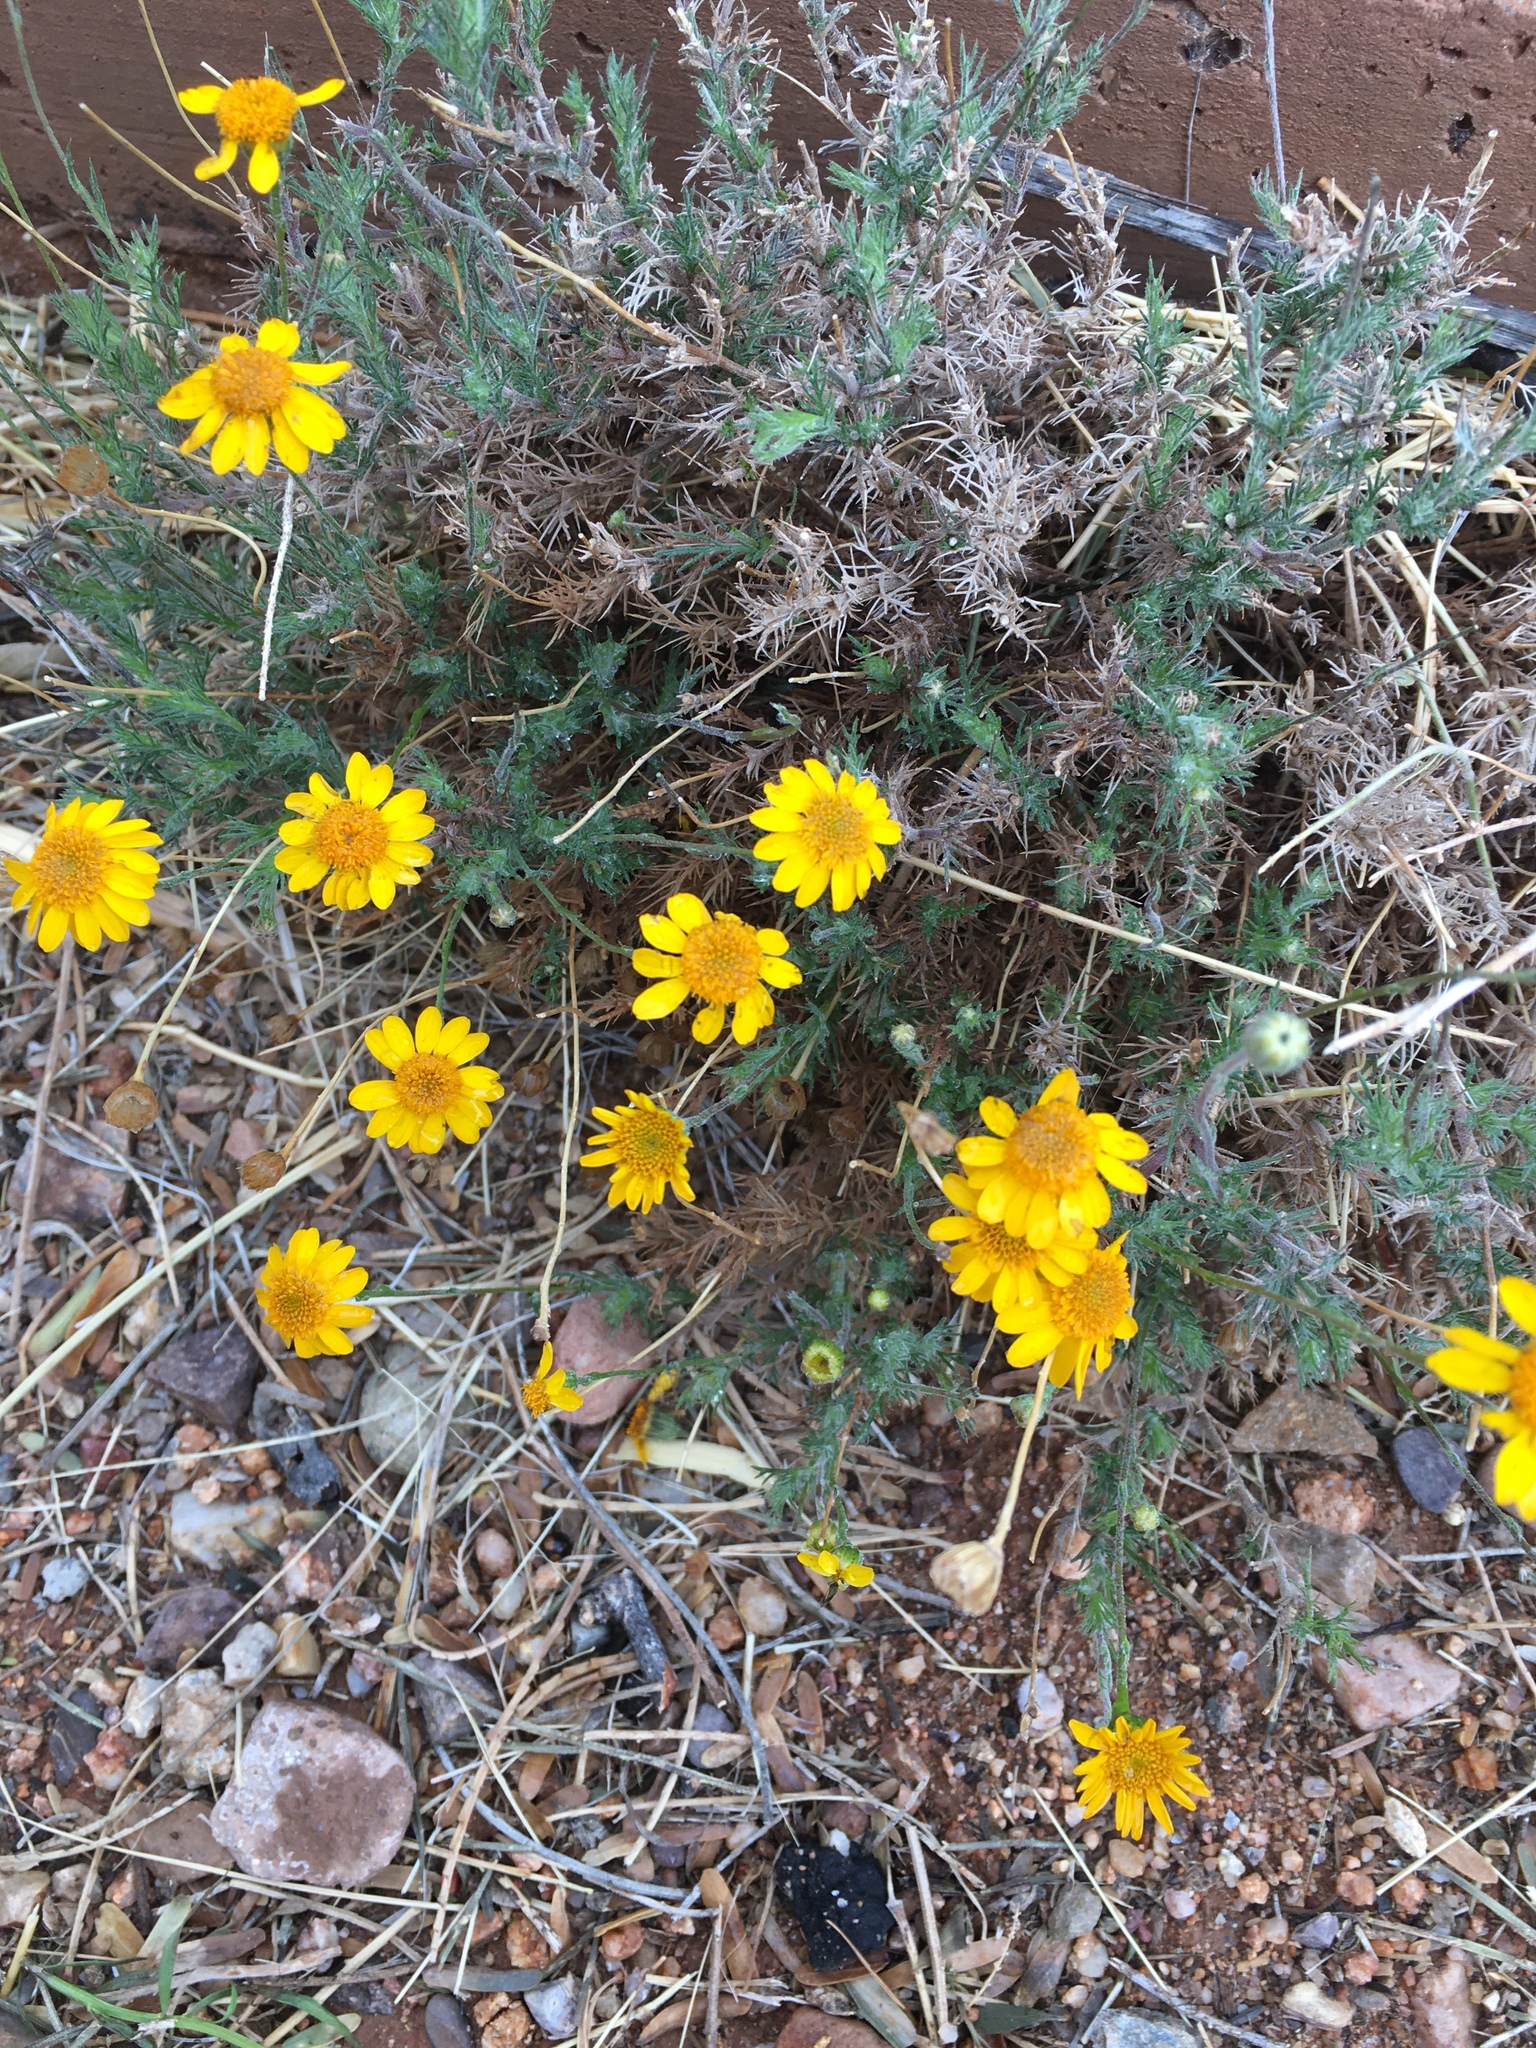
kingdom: Plantae
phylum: Tracheophyta
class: Magnoliopsida
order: Asterales
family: Asteraceae
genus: Thymophylla
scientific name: Thymophylla pentachaeta
